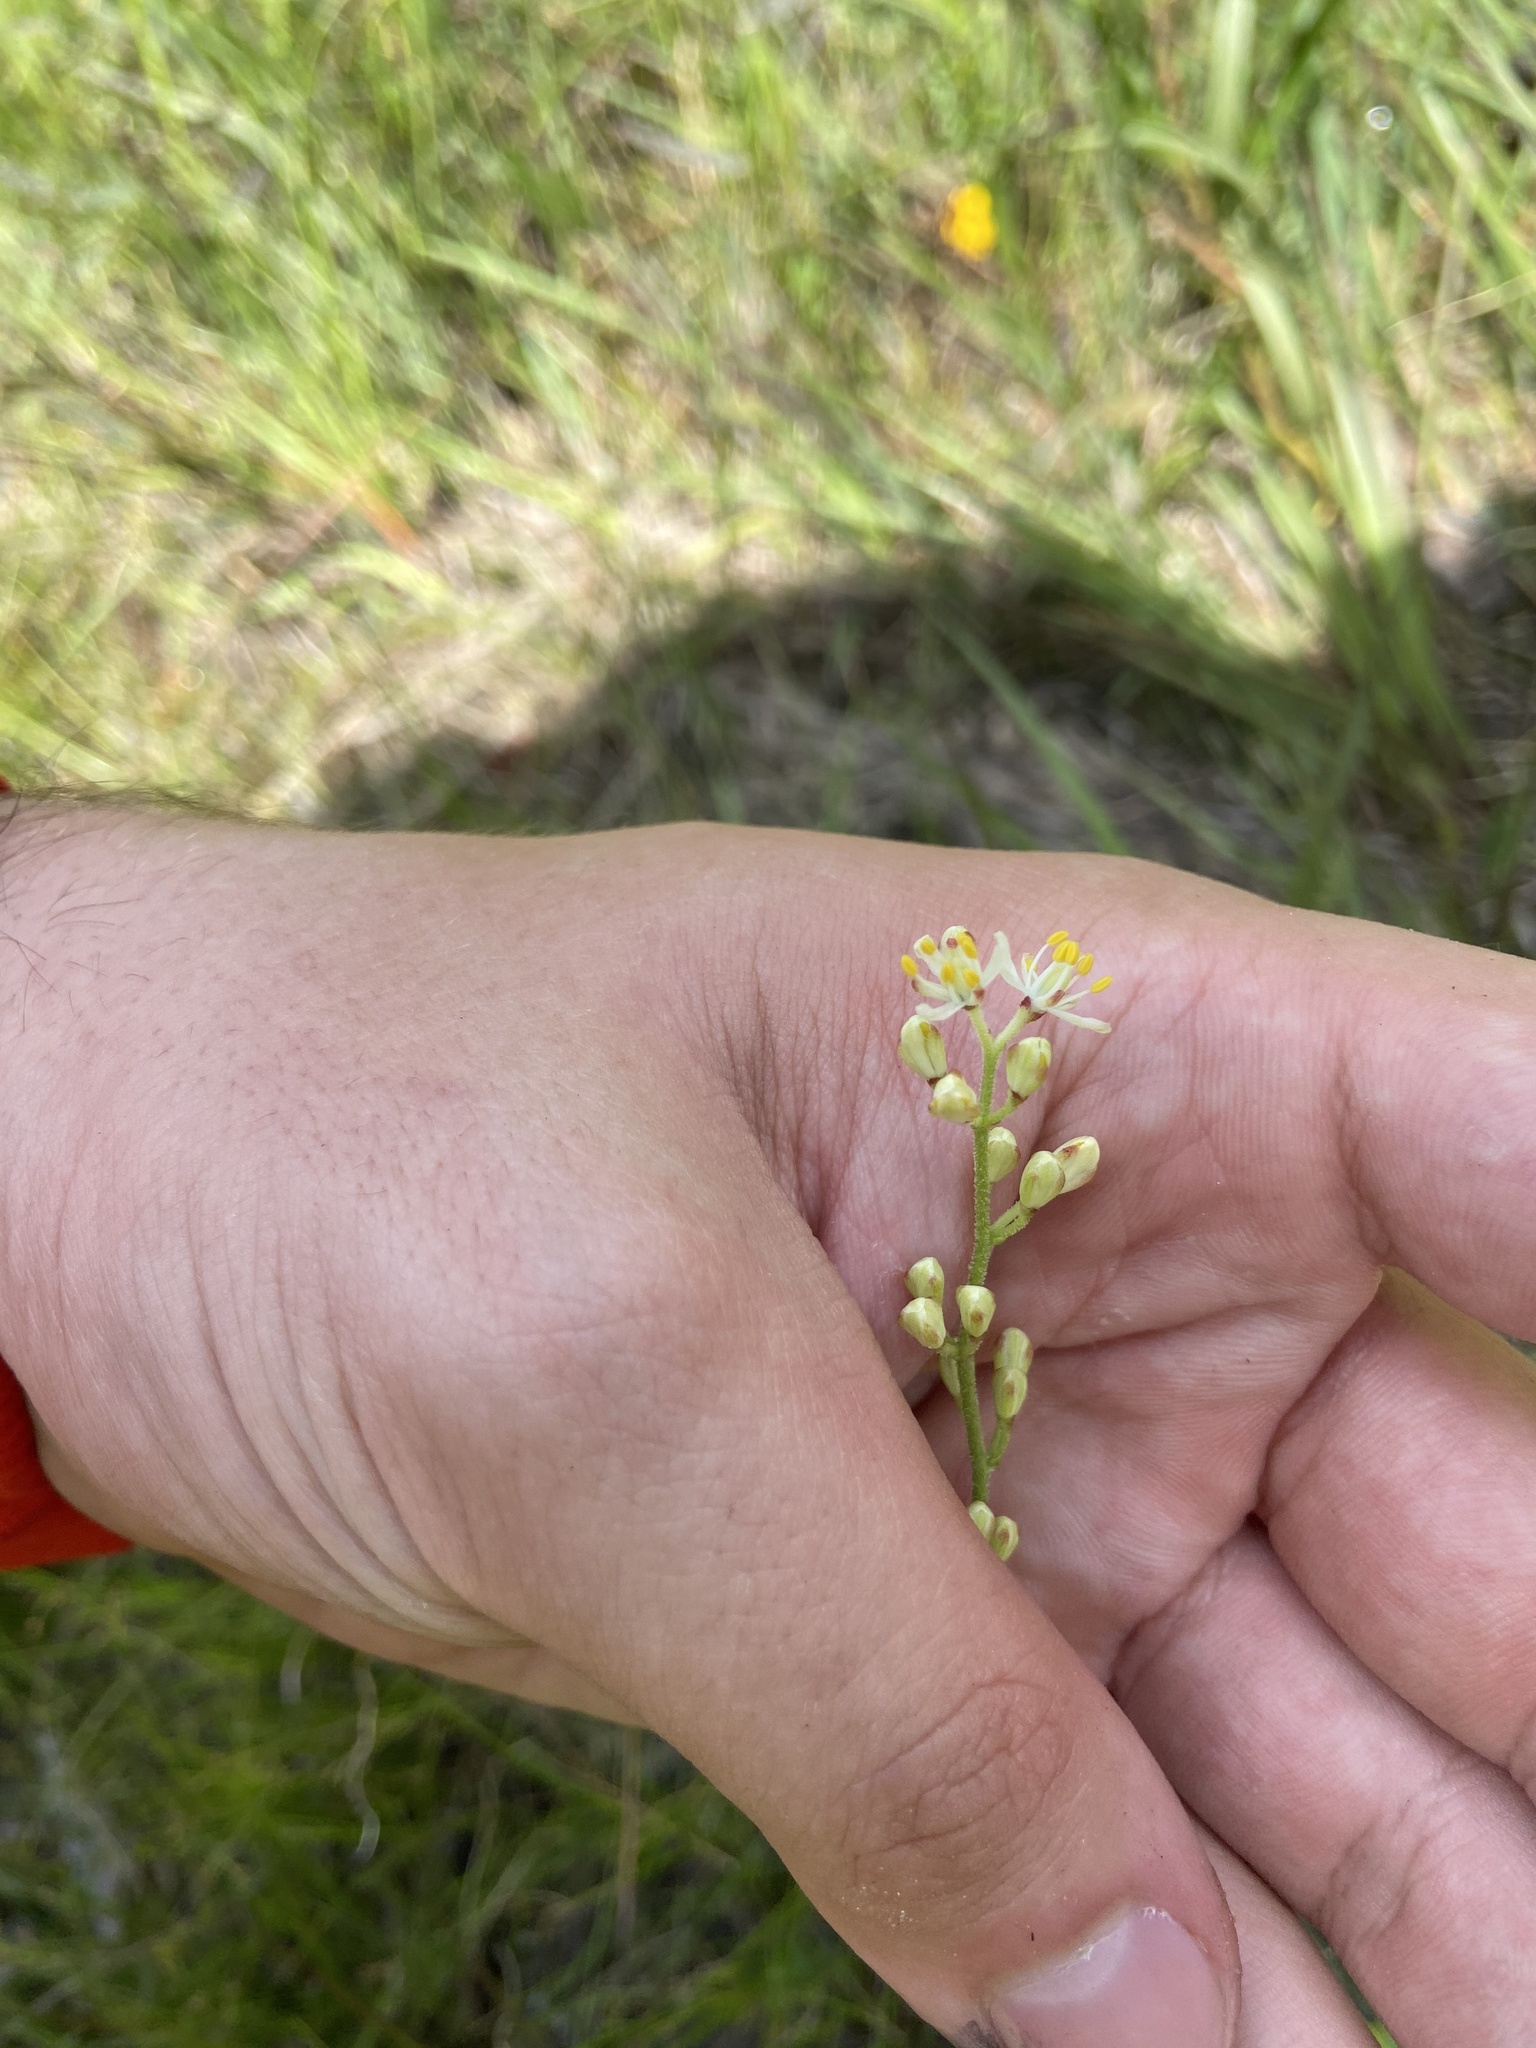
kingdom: Plantae
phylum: Tracheophyta
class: Liliopsida
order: Alismatales
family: Tofieldiaceae
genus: Triantha
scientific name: Triantha racemosa
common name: Coastal false asphodel
